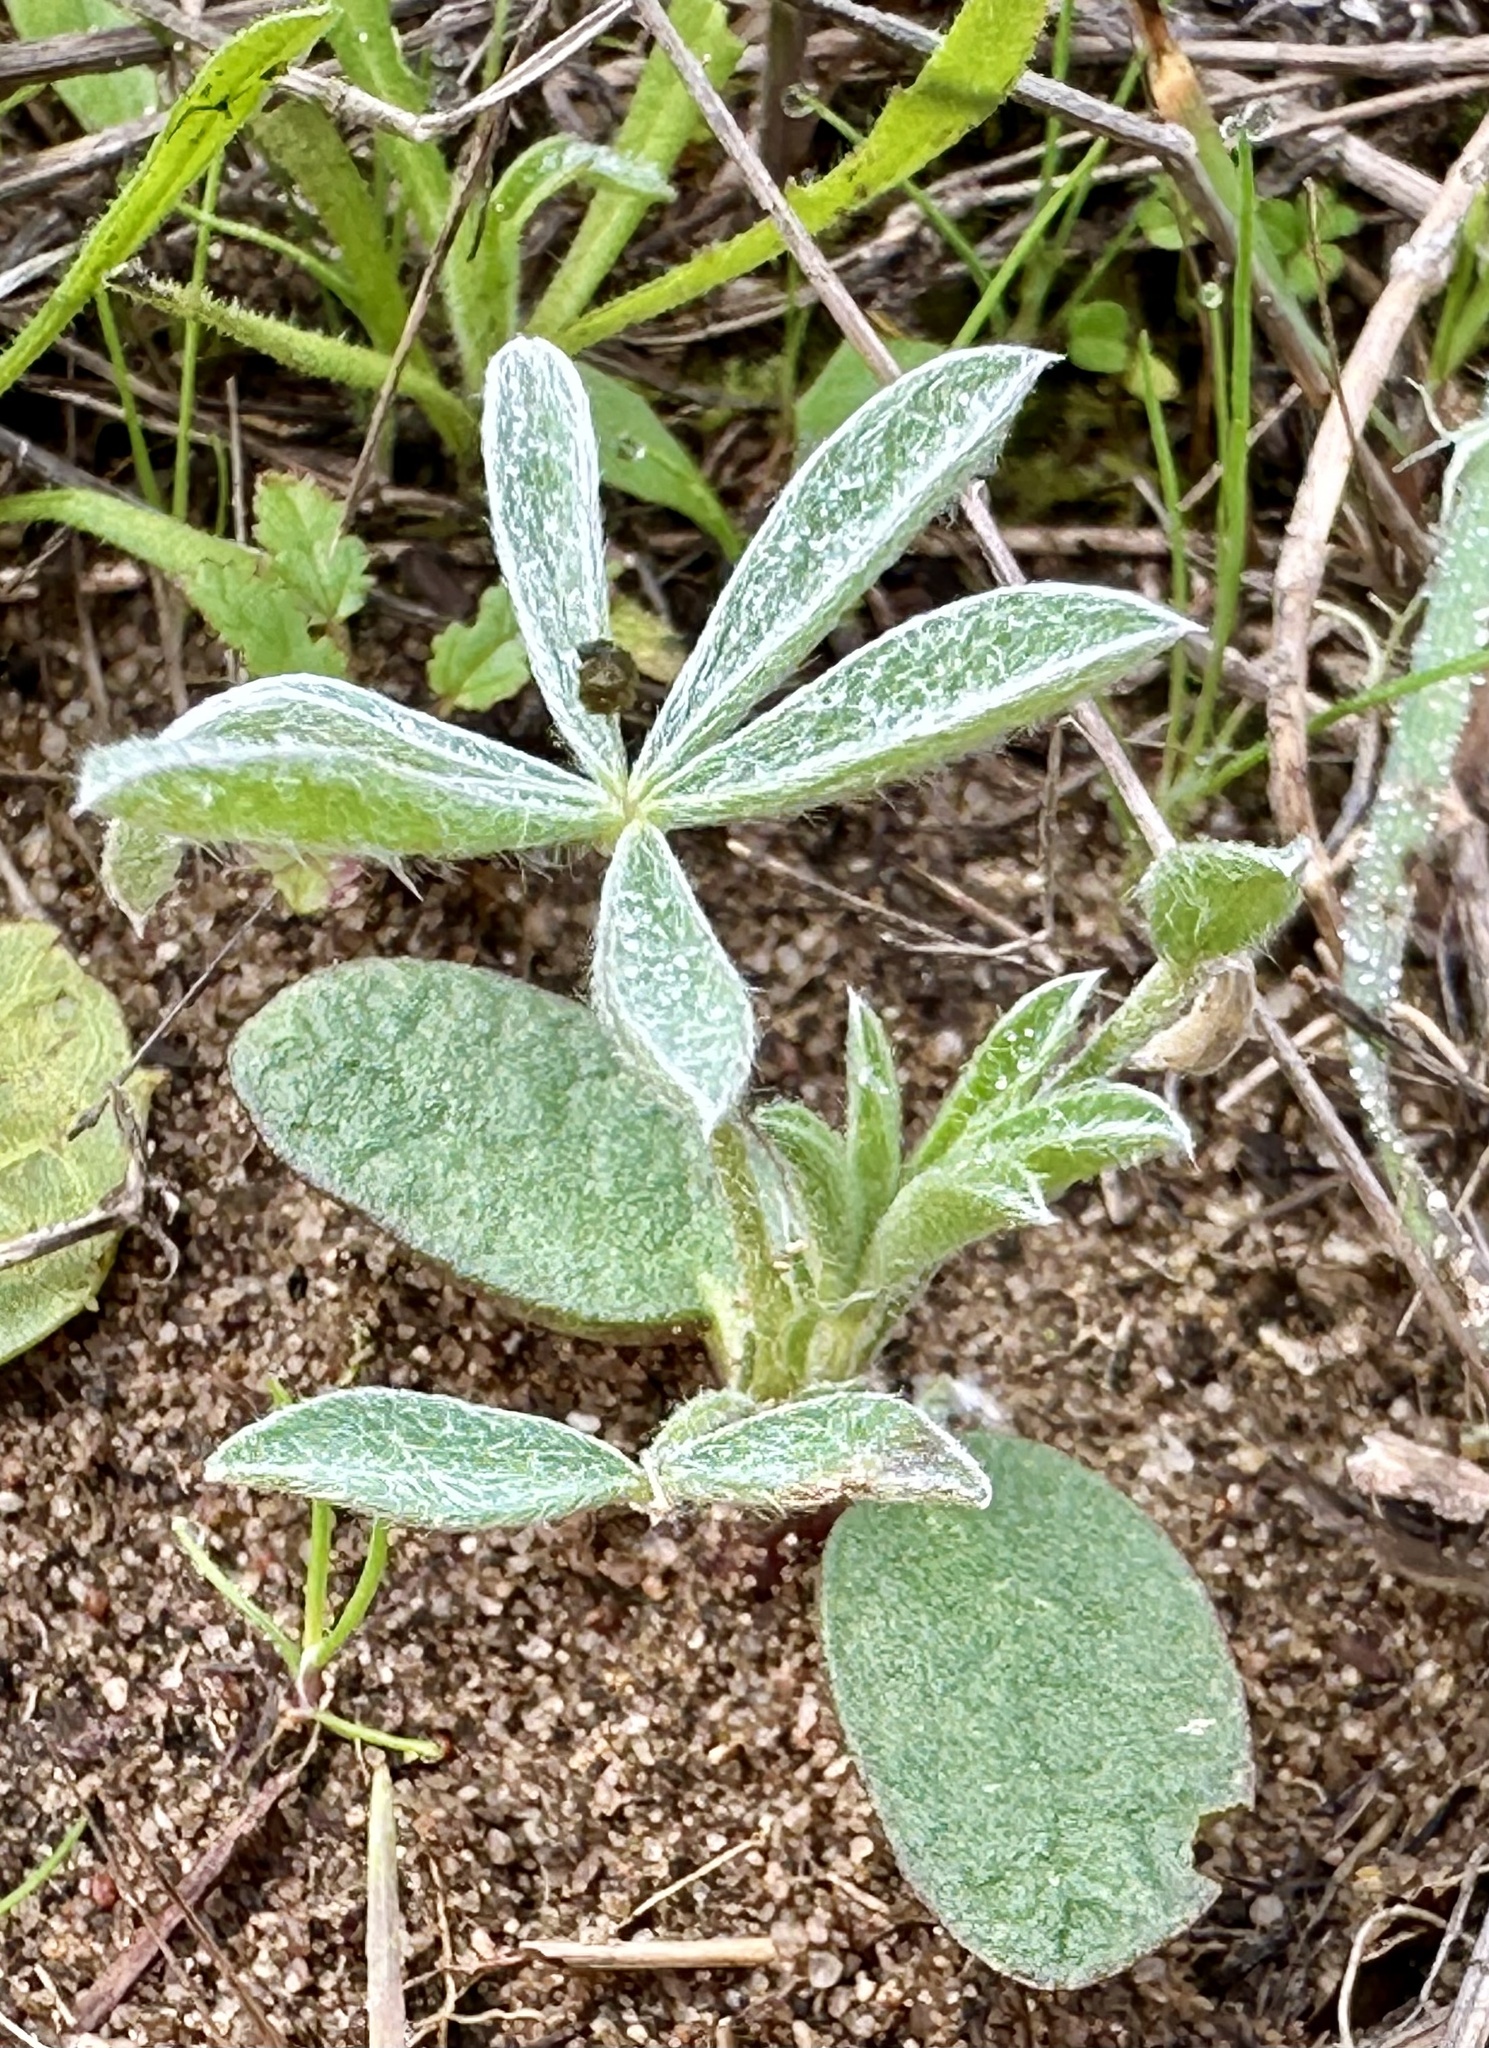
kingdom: Plantae
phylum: Tracheophyta
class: Magnoliopsida
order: Fabales
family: Fabaceae
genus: Lupinus
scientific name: Lupinus chamissonis
